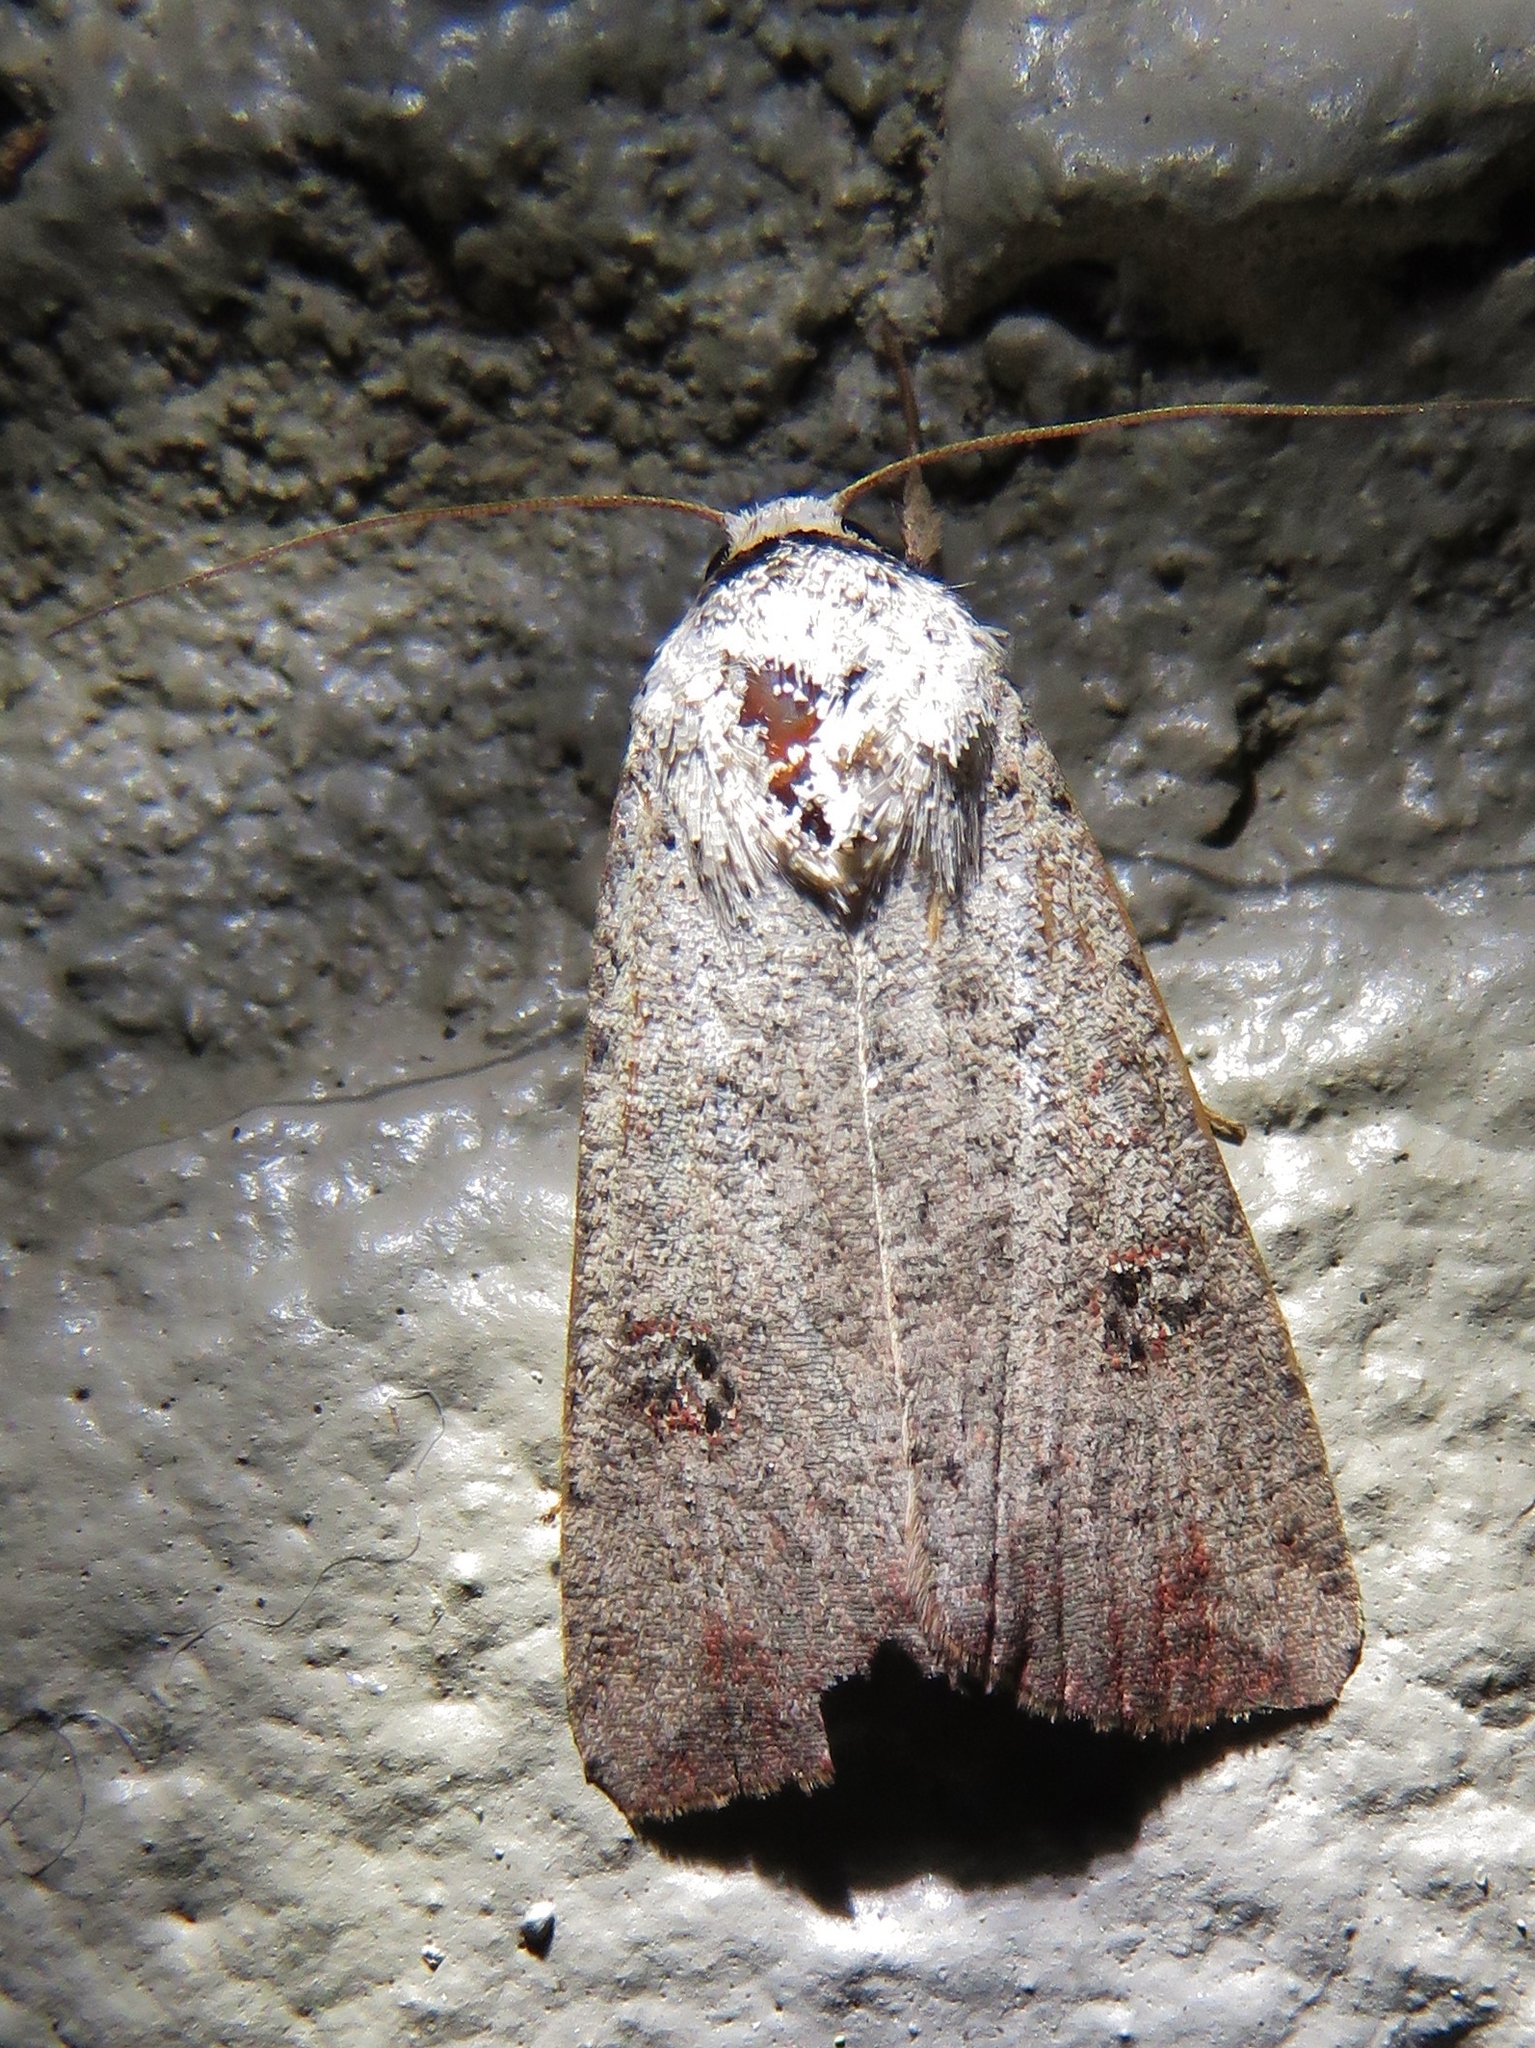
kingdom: Animalia
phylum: Arthropoda
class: Insecta
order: Lepidoptera
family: Noctuidae
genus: Anicla
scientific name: Anicla infecta
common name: Green cutworm
